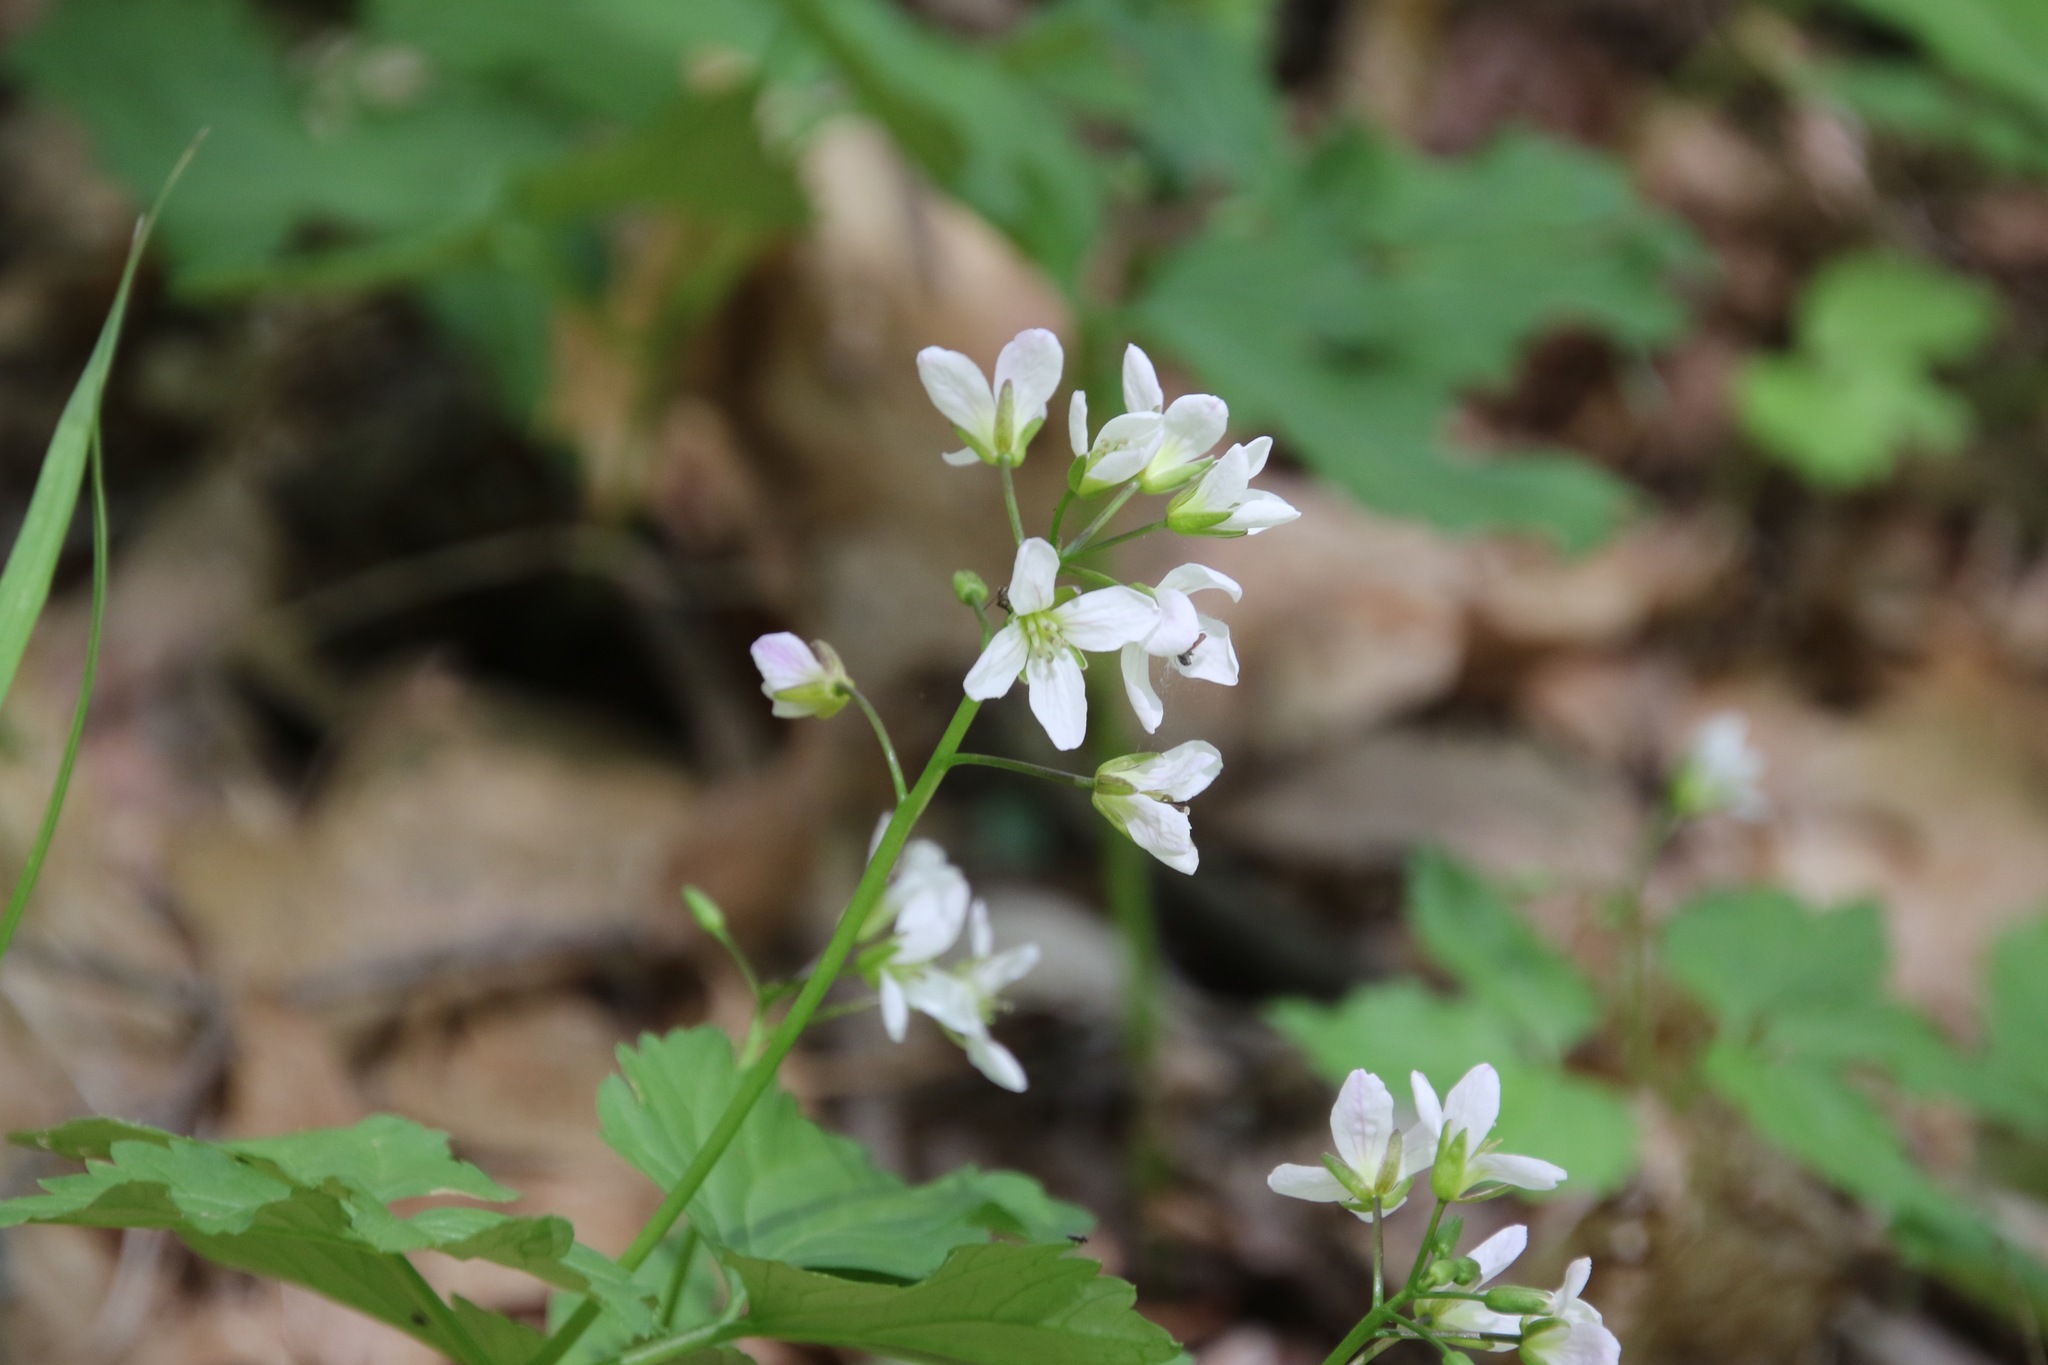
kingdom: Plantae
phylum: Tracheophyta
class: Magnoliopsida
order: Brassicales
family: Brassicaceae
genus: Cardamine
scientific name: Cardamine diphylla
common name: Broad-leaved toothwort
